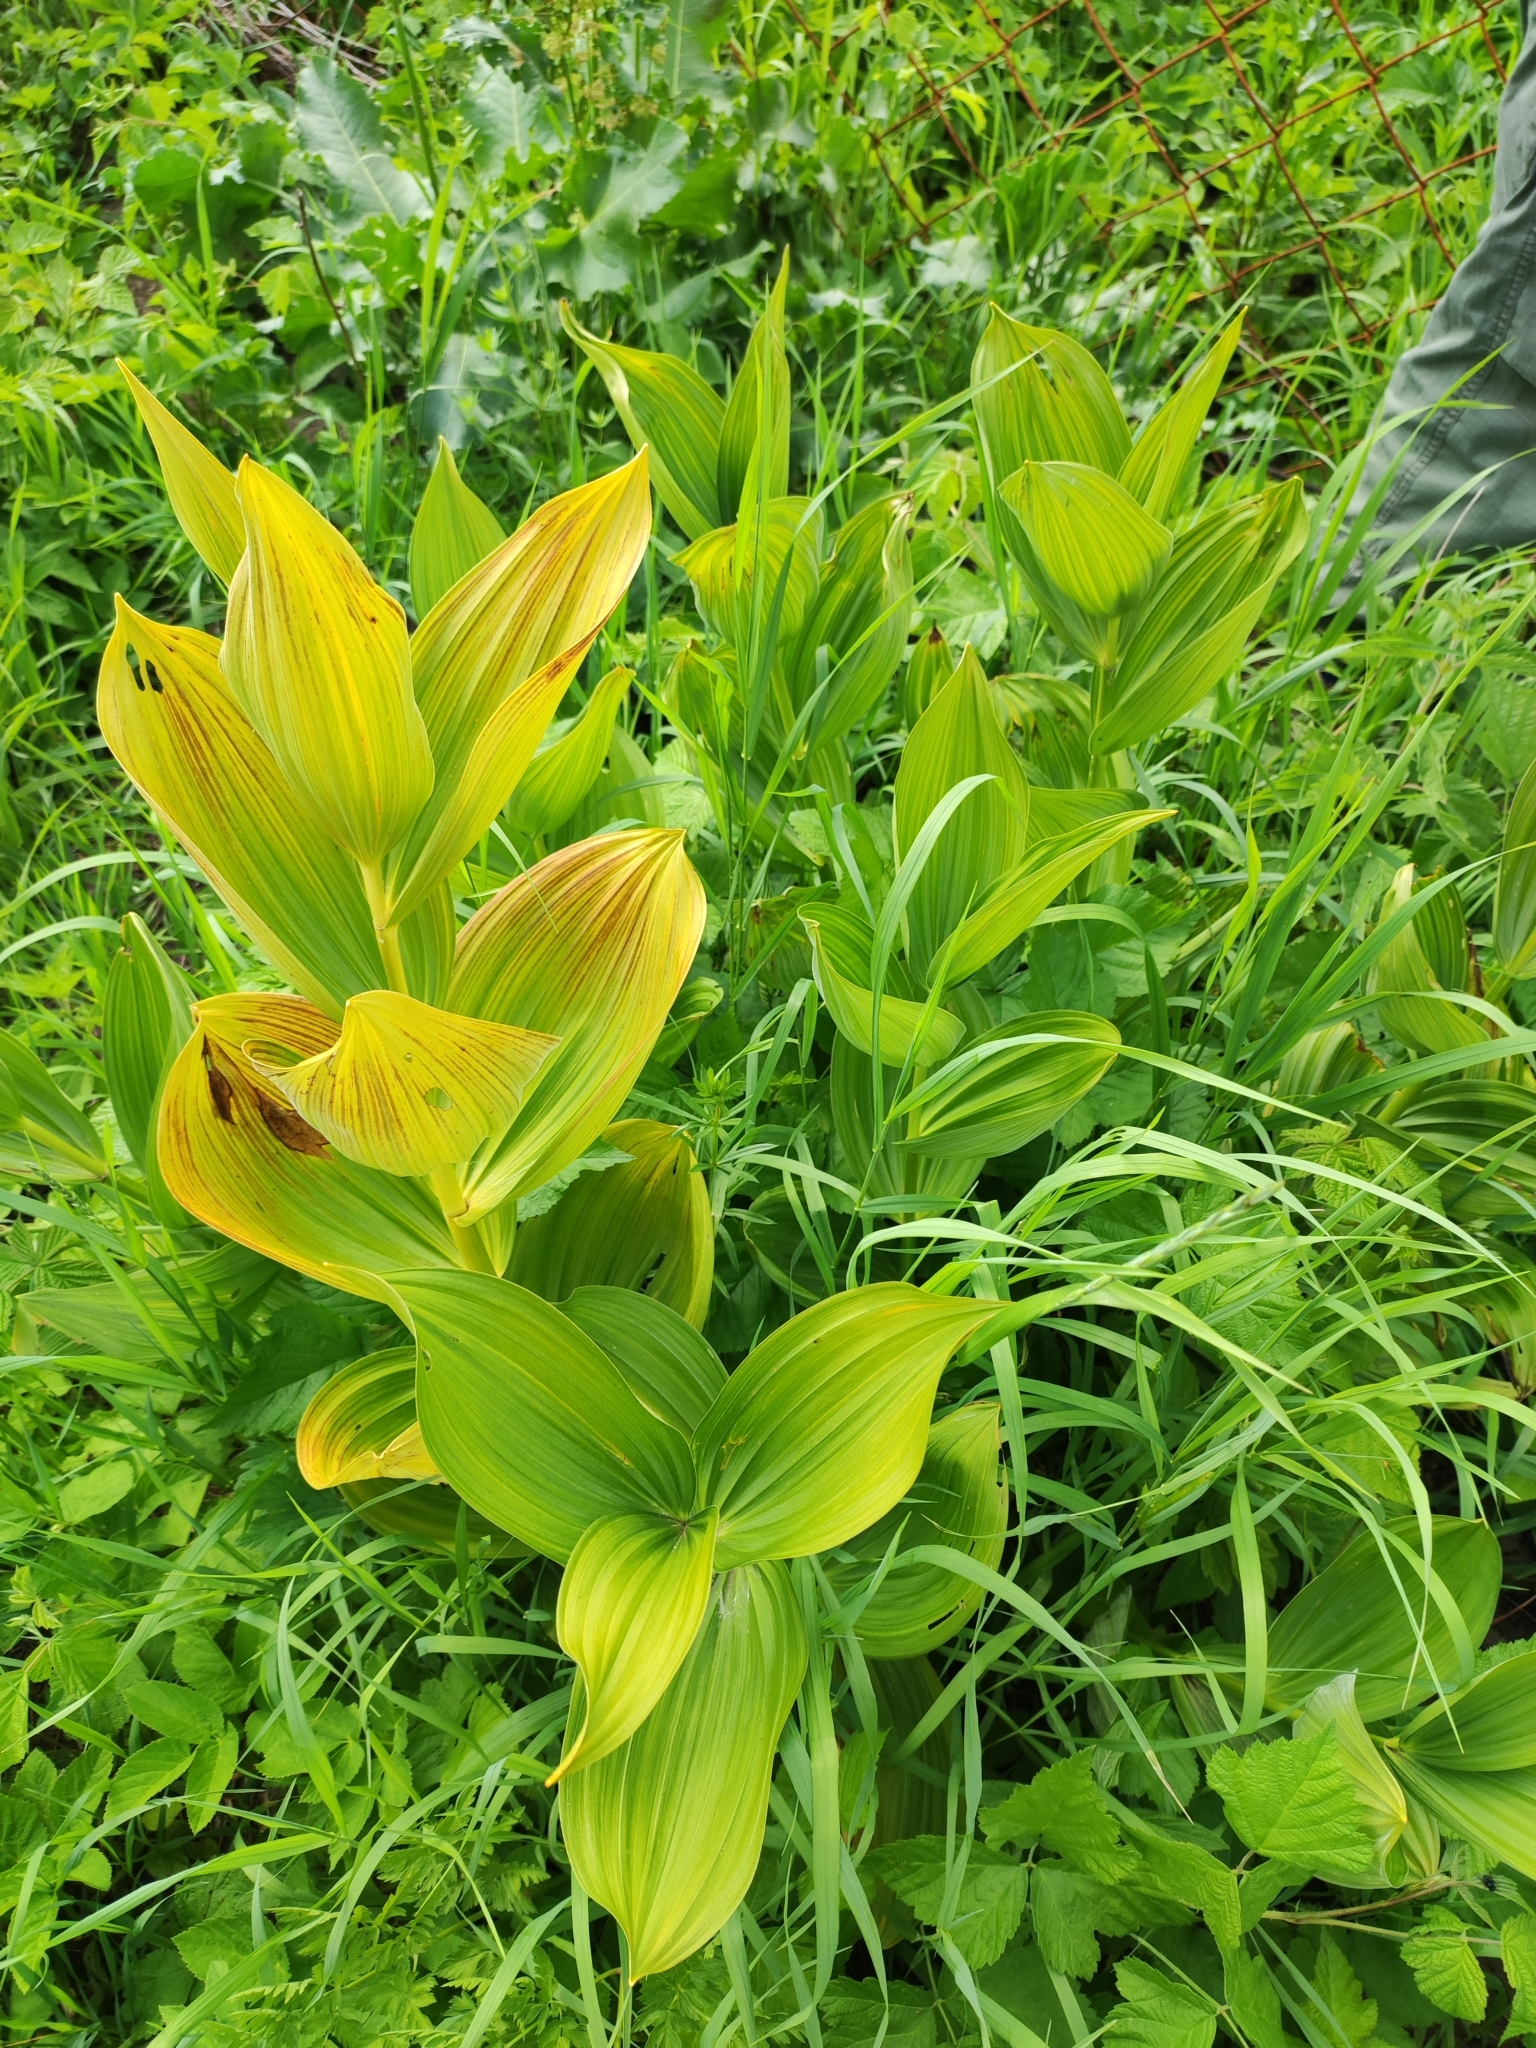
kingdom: Plantae
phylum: Tracheophyta
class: Liliopsida
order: Liliales
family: Melanthiaceae
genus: Veratrum
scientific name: Veratrum lobelianum
